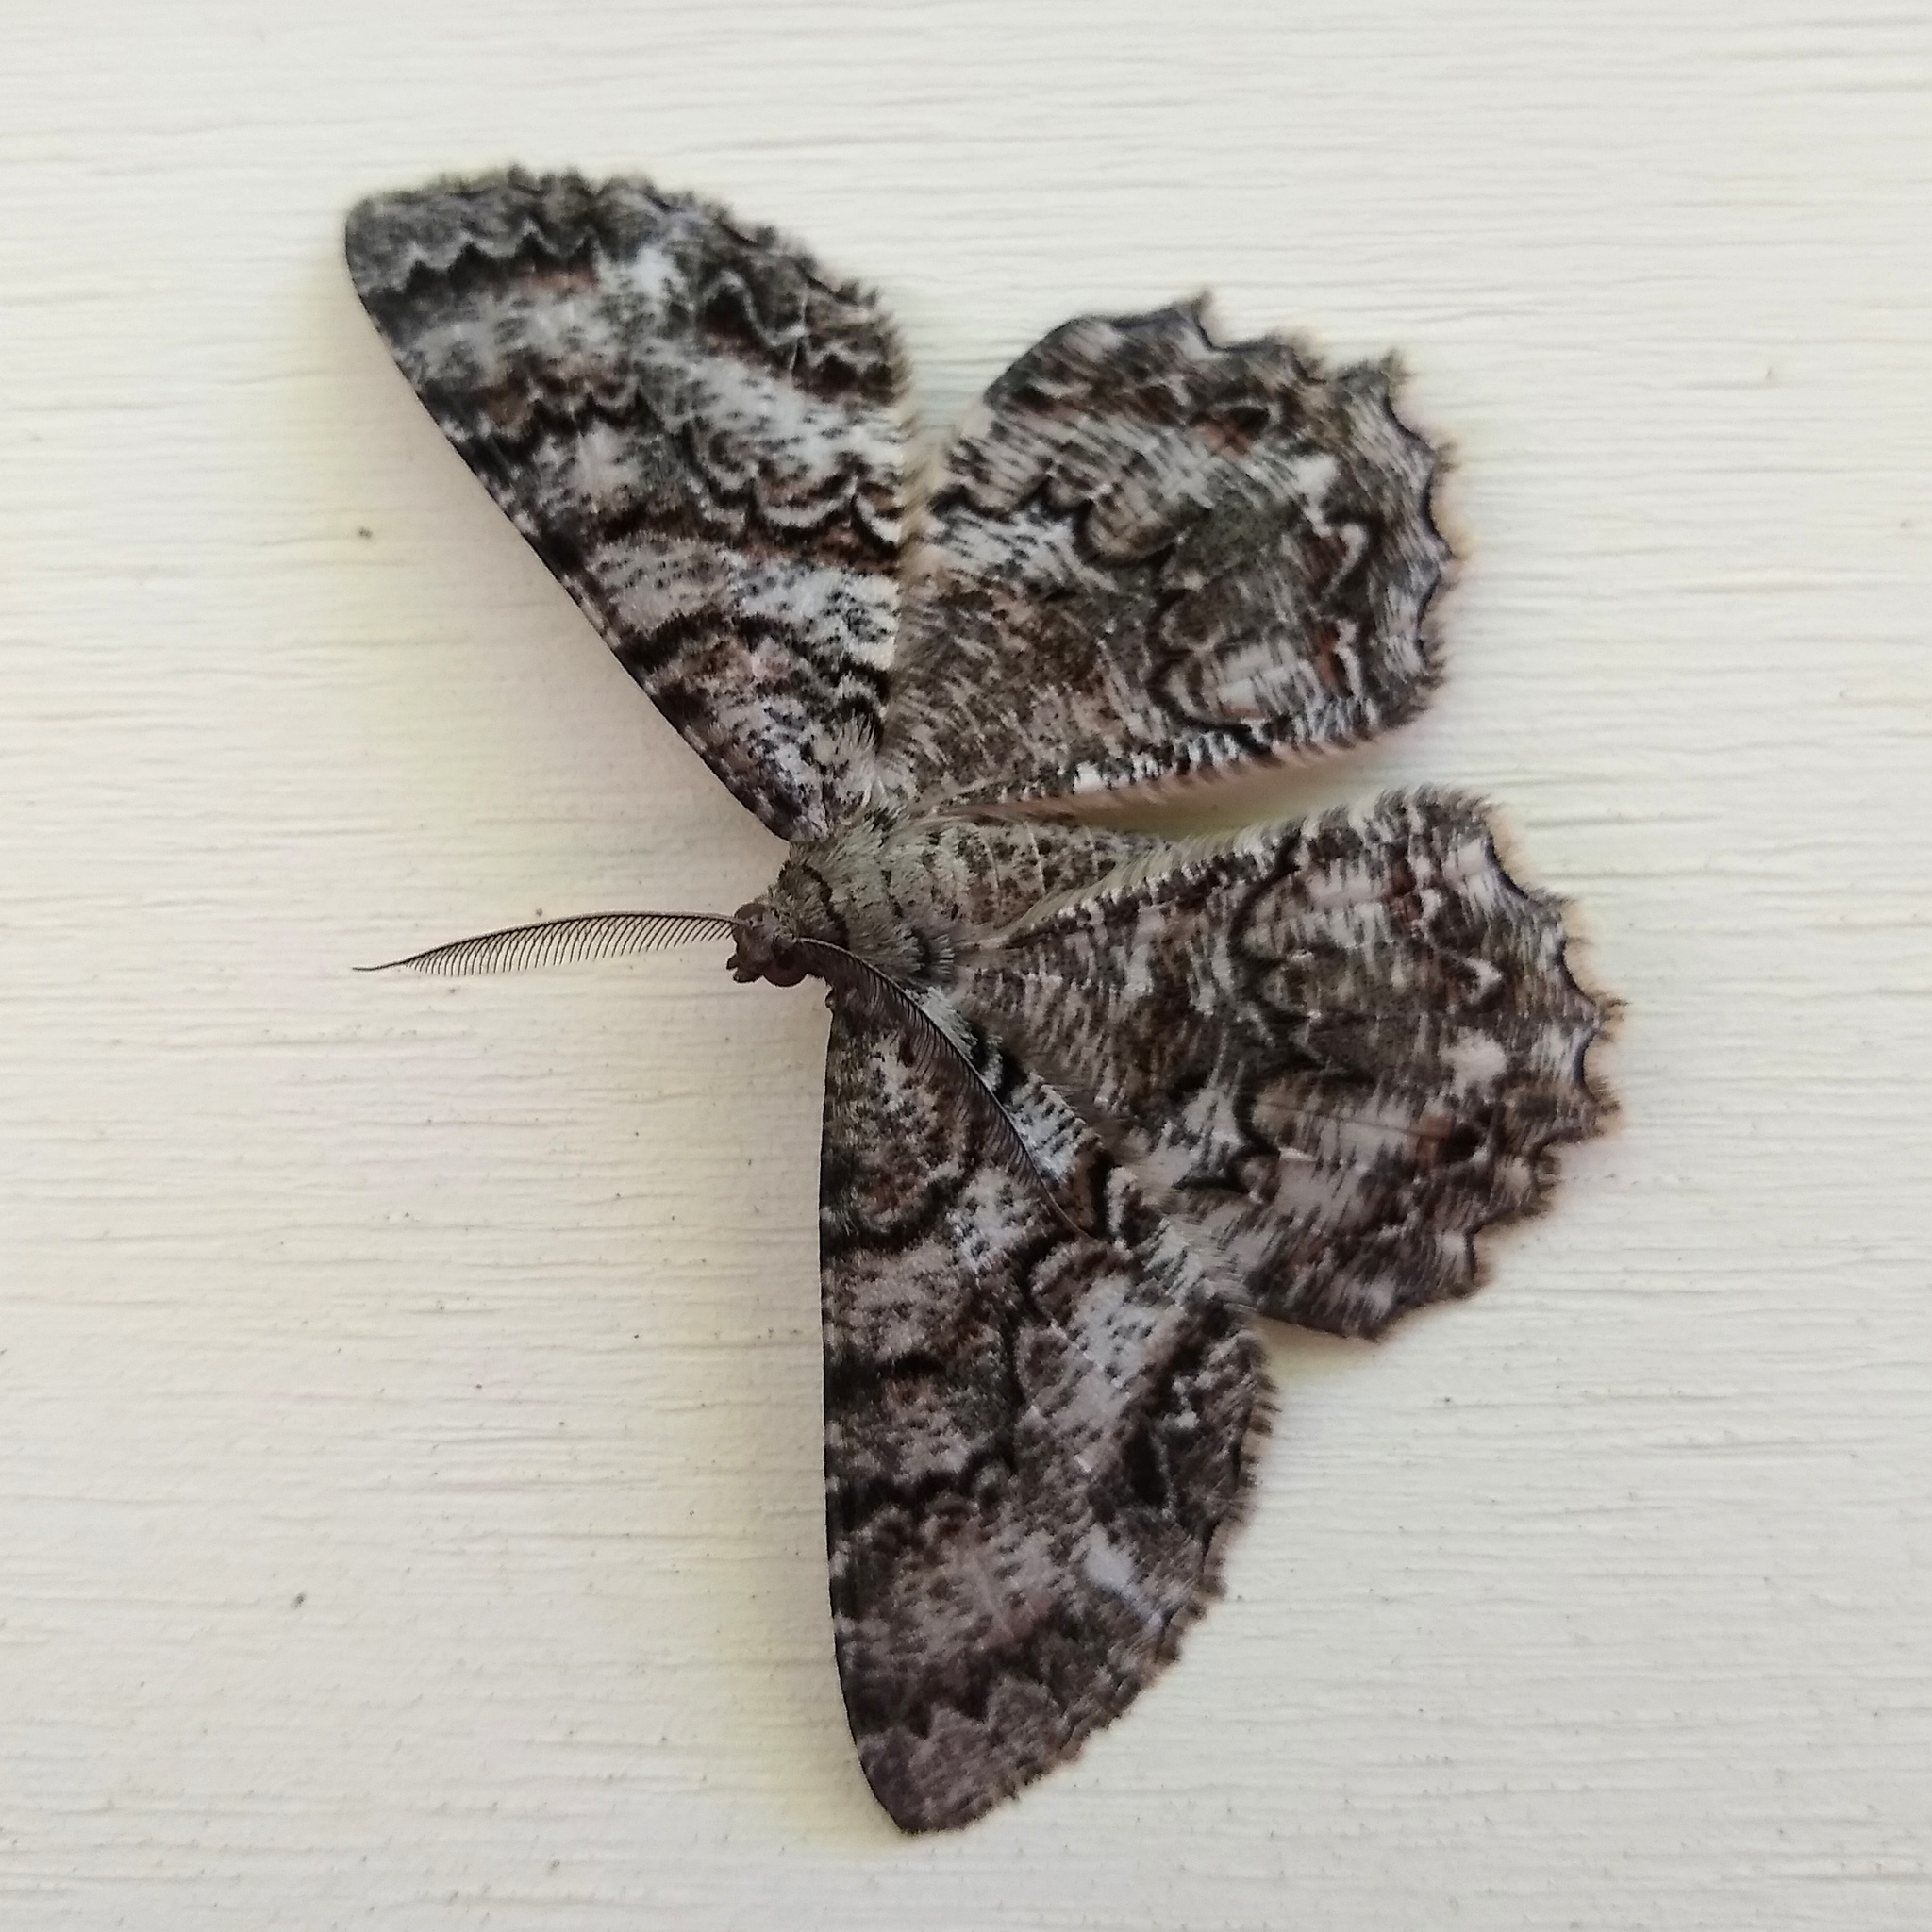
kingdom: Animalia
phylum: Arthropoda
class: Insecta
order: Lepidoptera
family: Geometridae
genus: Epimecis
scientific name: Epimecis hortaria
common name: Tulip-tree beauty
